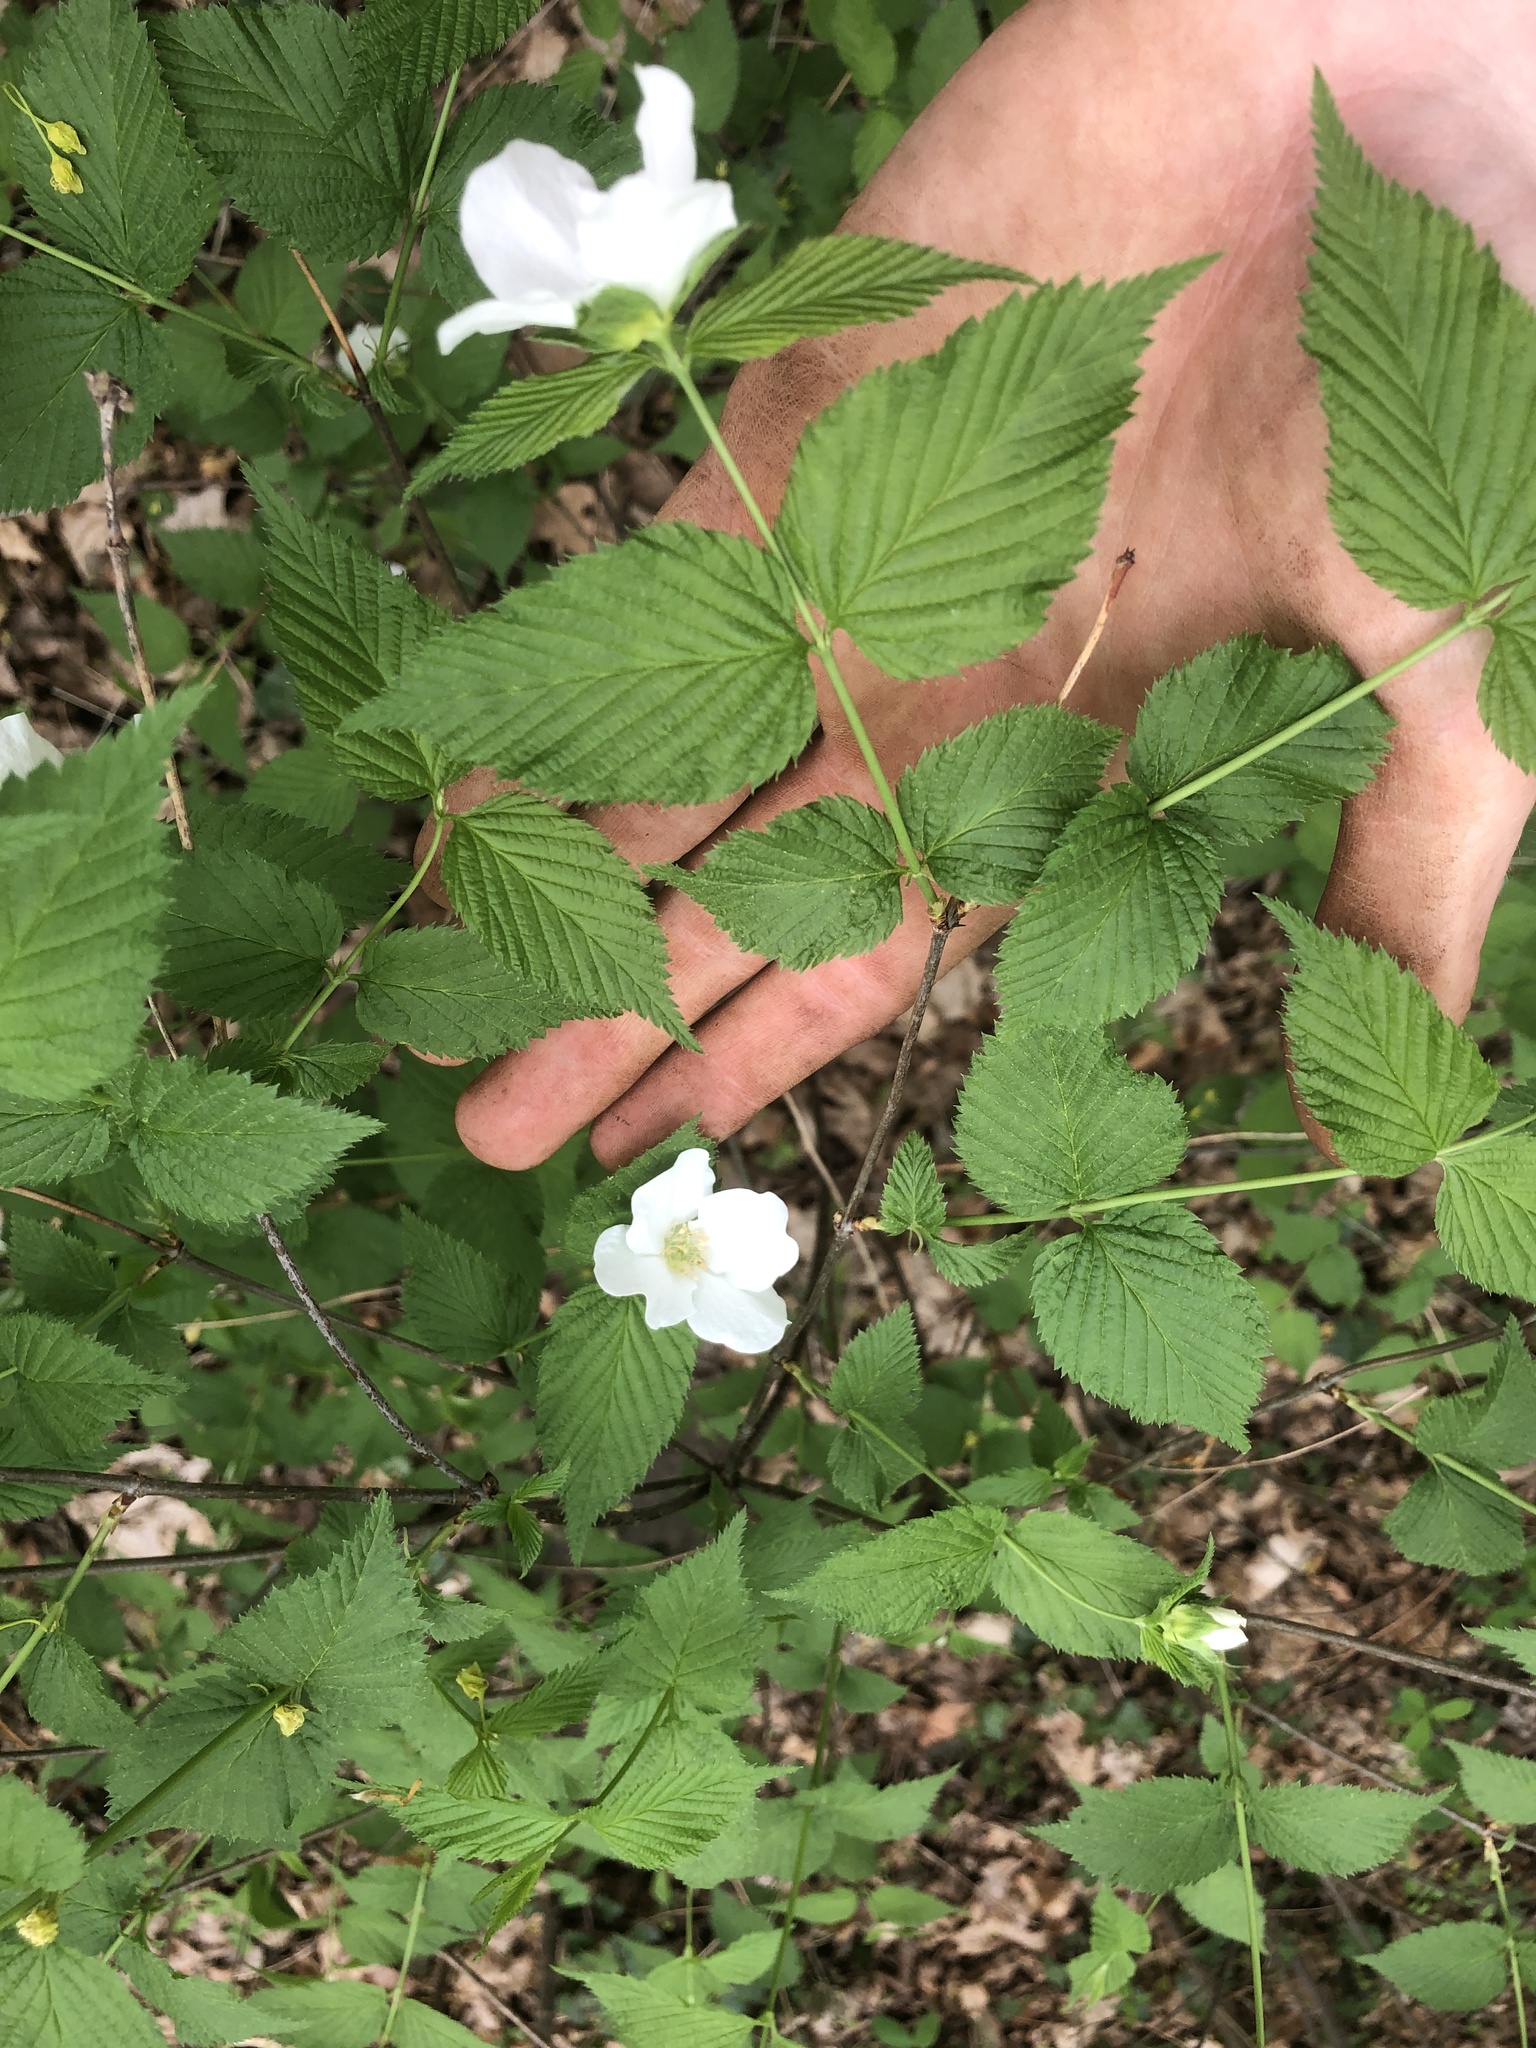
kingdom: Plantae
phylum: Tracheophyta
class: Magnoliopsida
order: Rosales
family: Rosaceae
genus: Rhodotypos
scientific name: Rhodotypos scandens
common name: Jetbead
